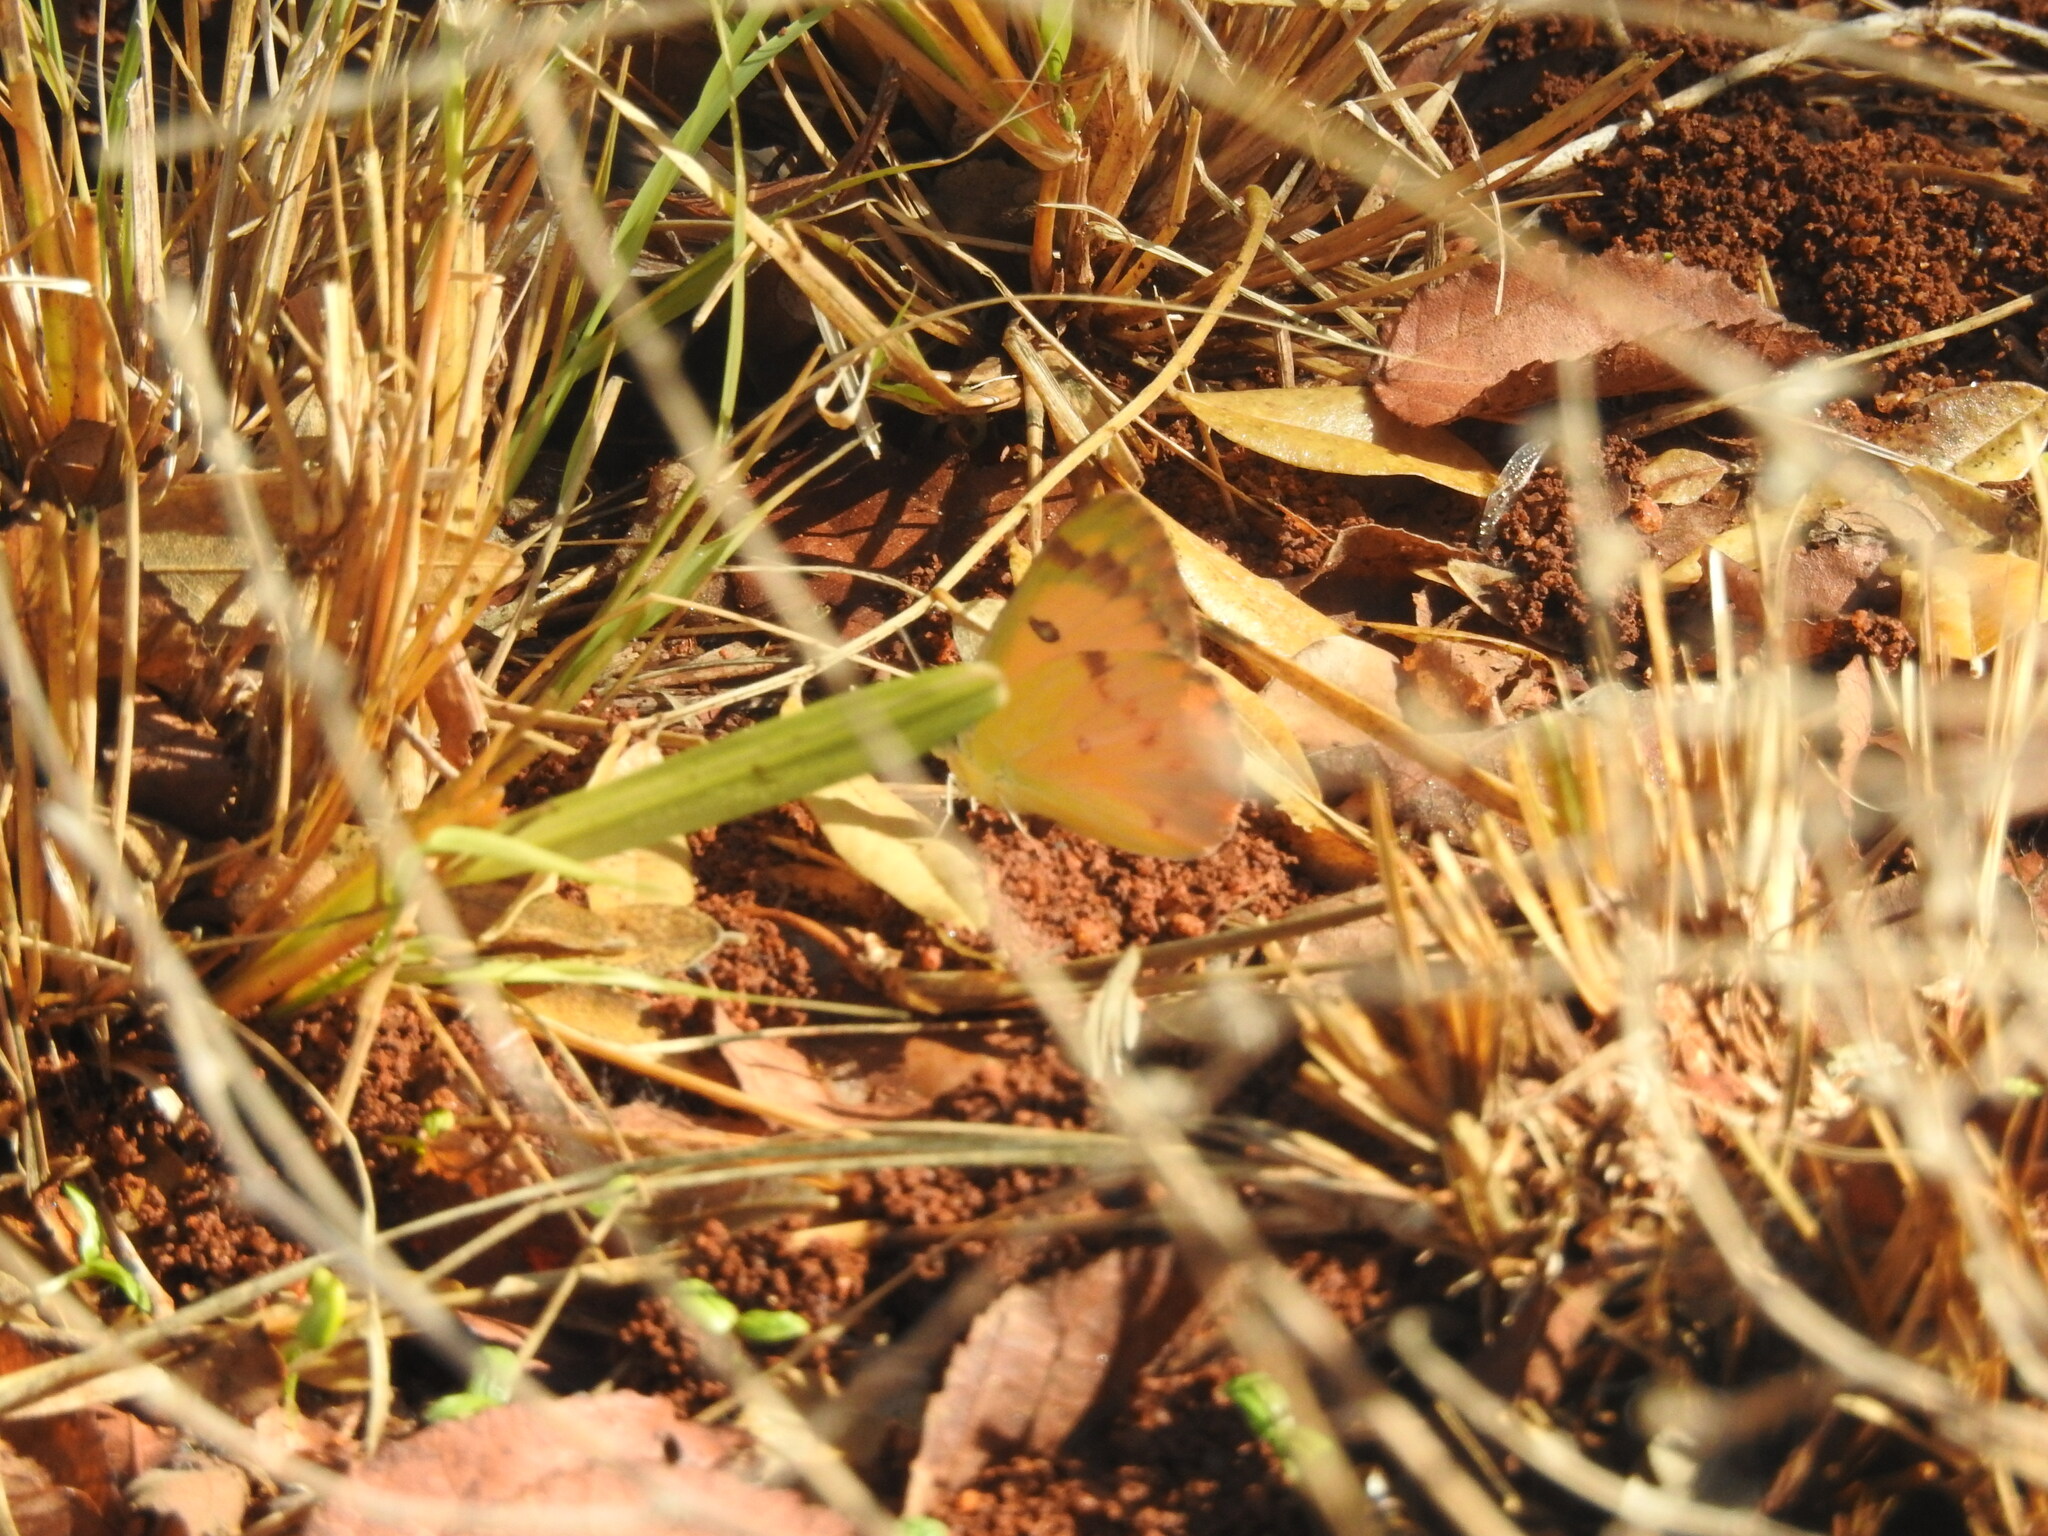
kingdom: Animalia
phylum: Arthropoda
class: Insecta
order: Lepidoptera
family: Pieridae
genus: Colotis
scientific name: Colotis fausta
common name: Large salmon arab
